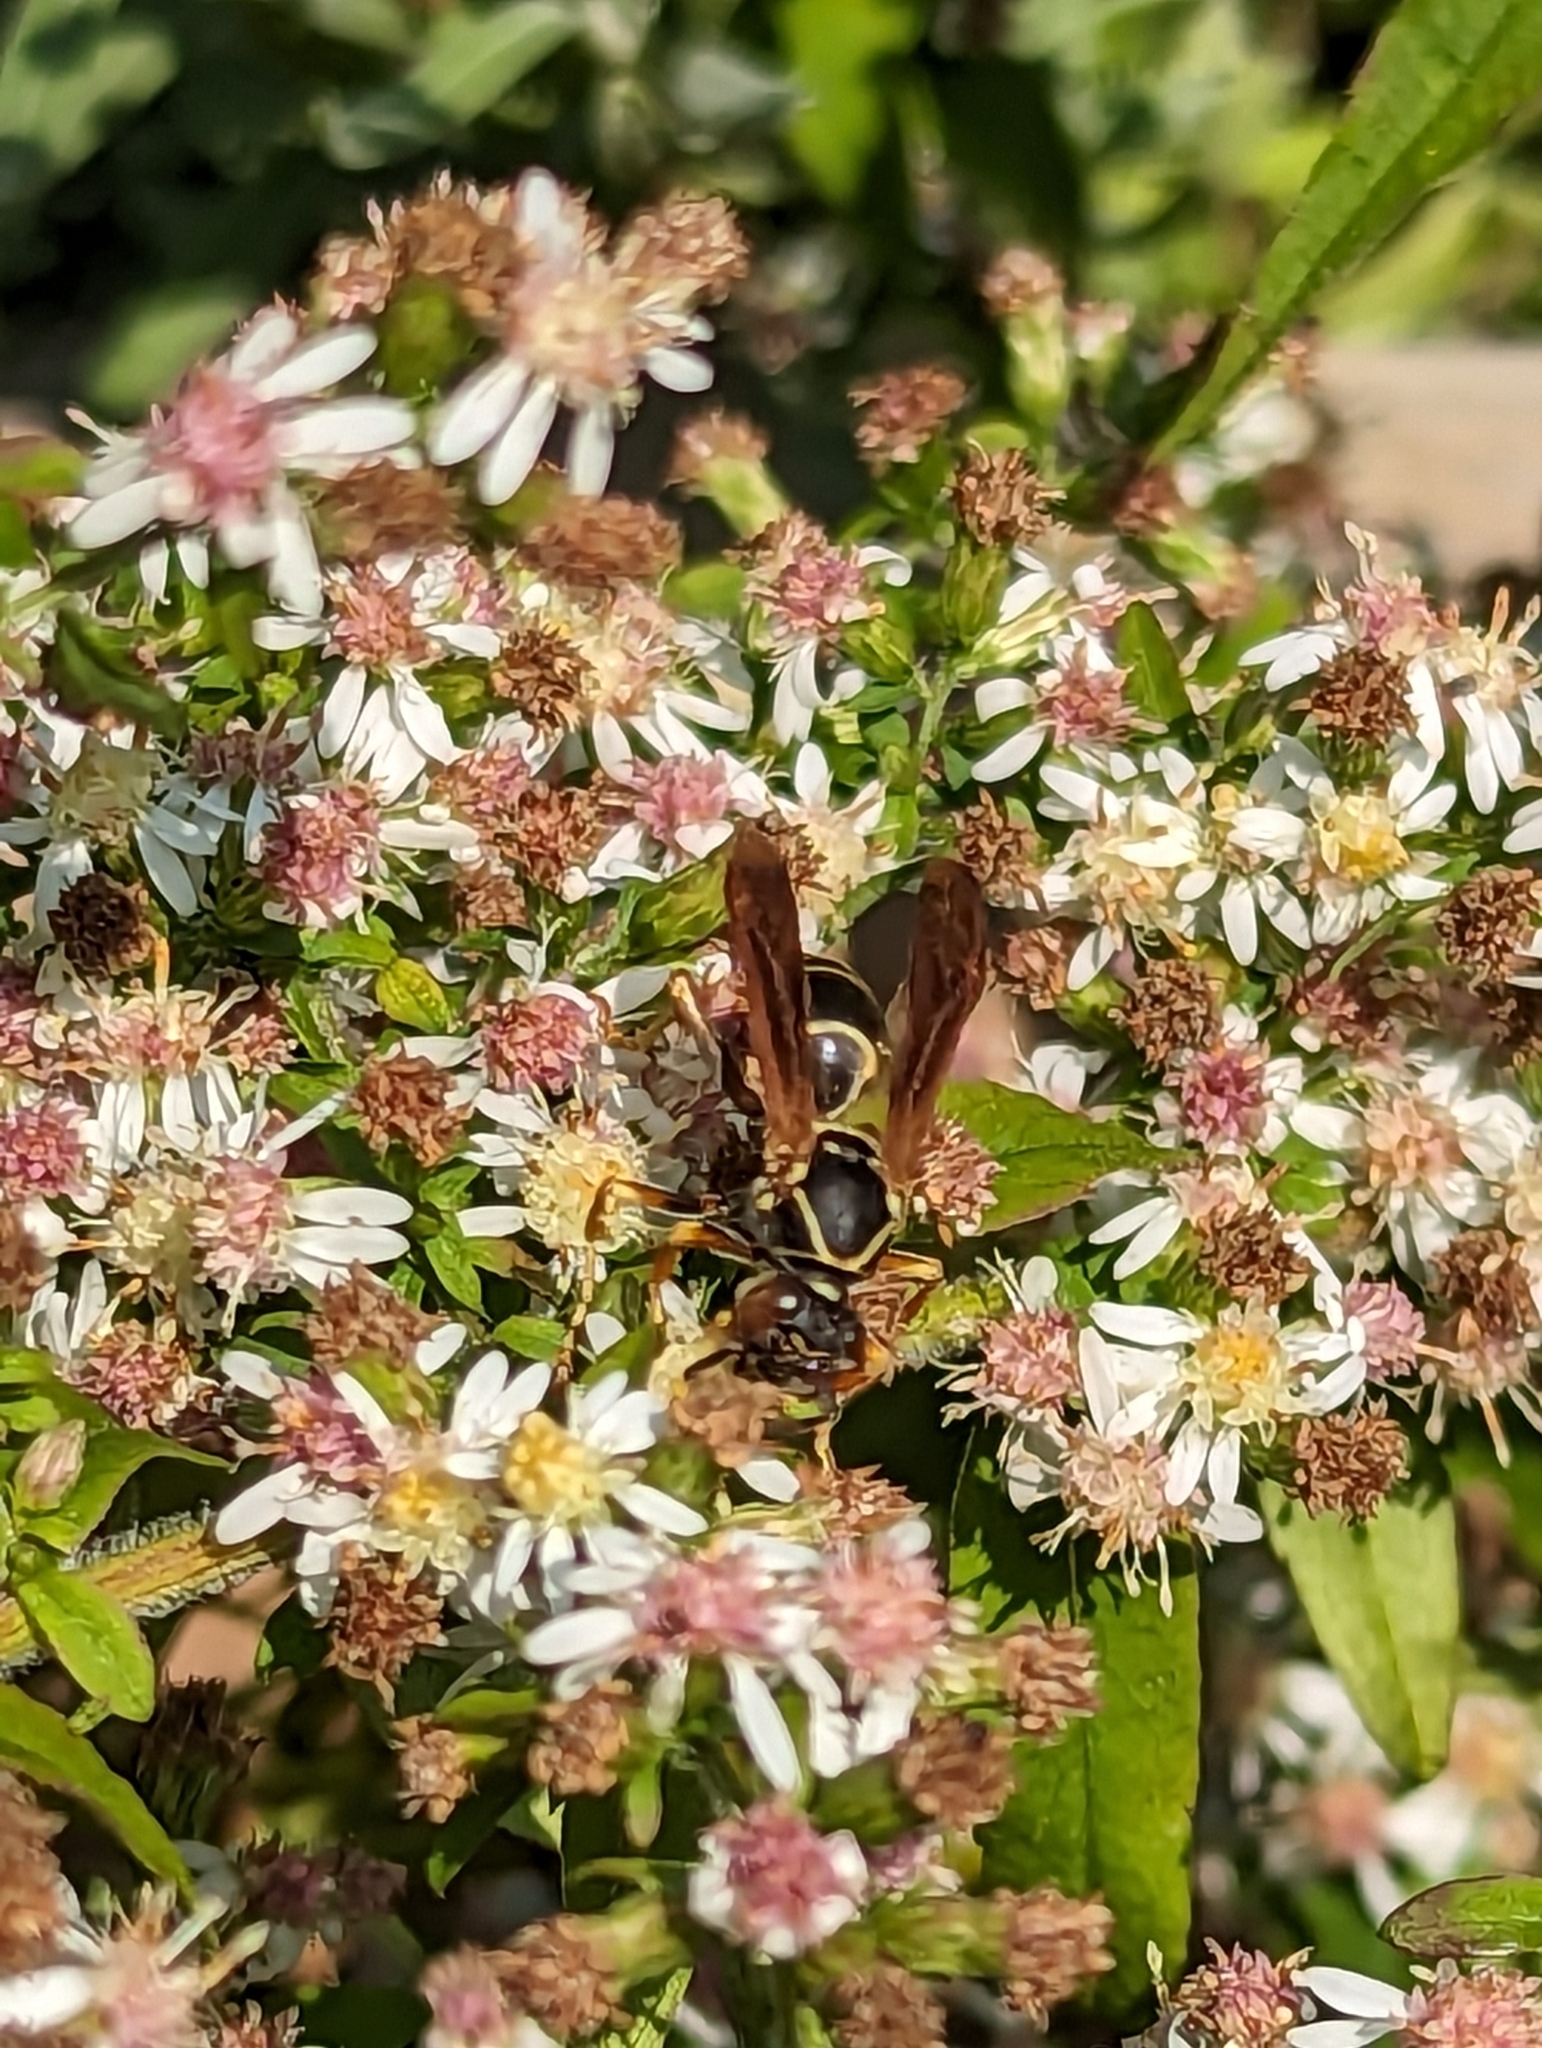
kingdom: Animalia
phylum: Arthropoda
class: Insecta
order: Hymenoptera
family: Eumenidae
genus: Polistes
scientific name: Polistes fuscatus
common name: Dark paper wasp
